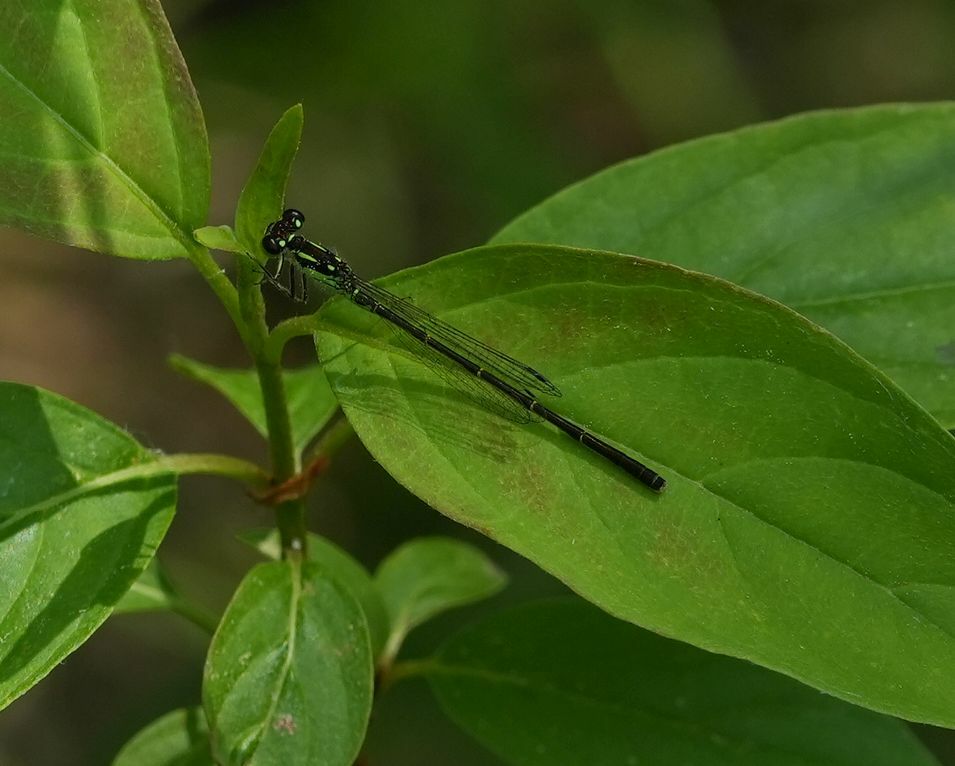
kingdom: Animalia
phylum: Arthropoda
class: Insecta
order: Odonata
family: Coenagrionidae
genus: Ischnura
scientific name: Ischnura posita
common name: Fragile forktail
